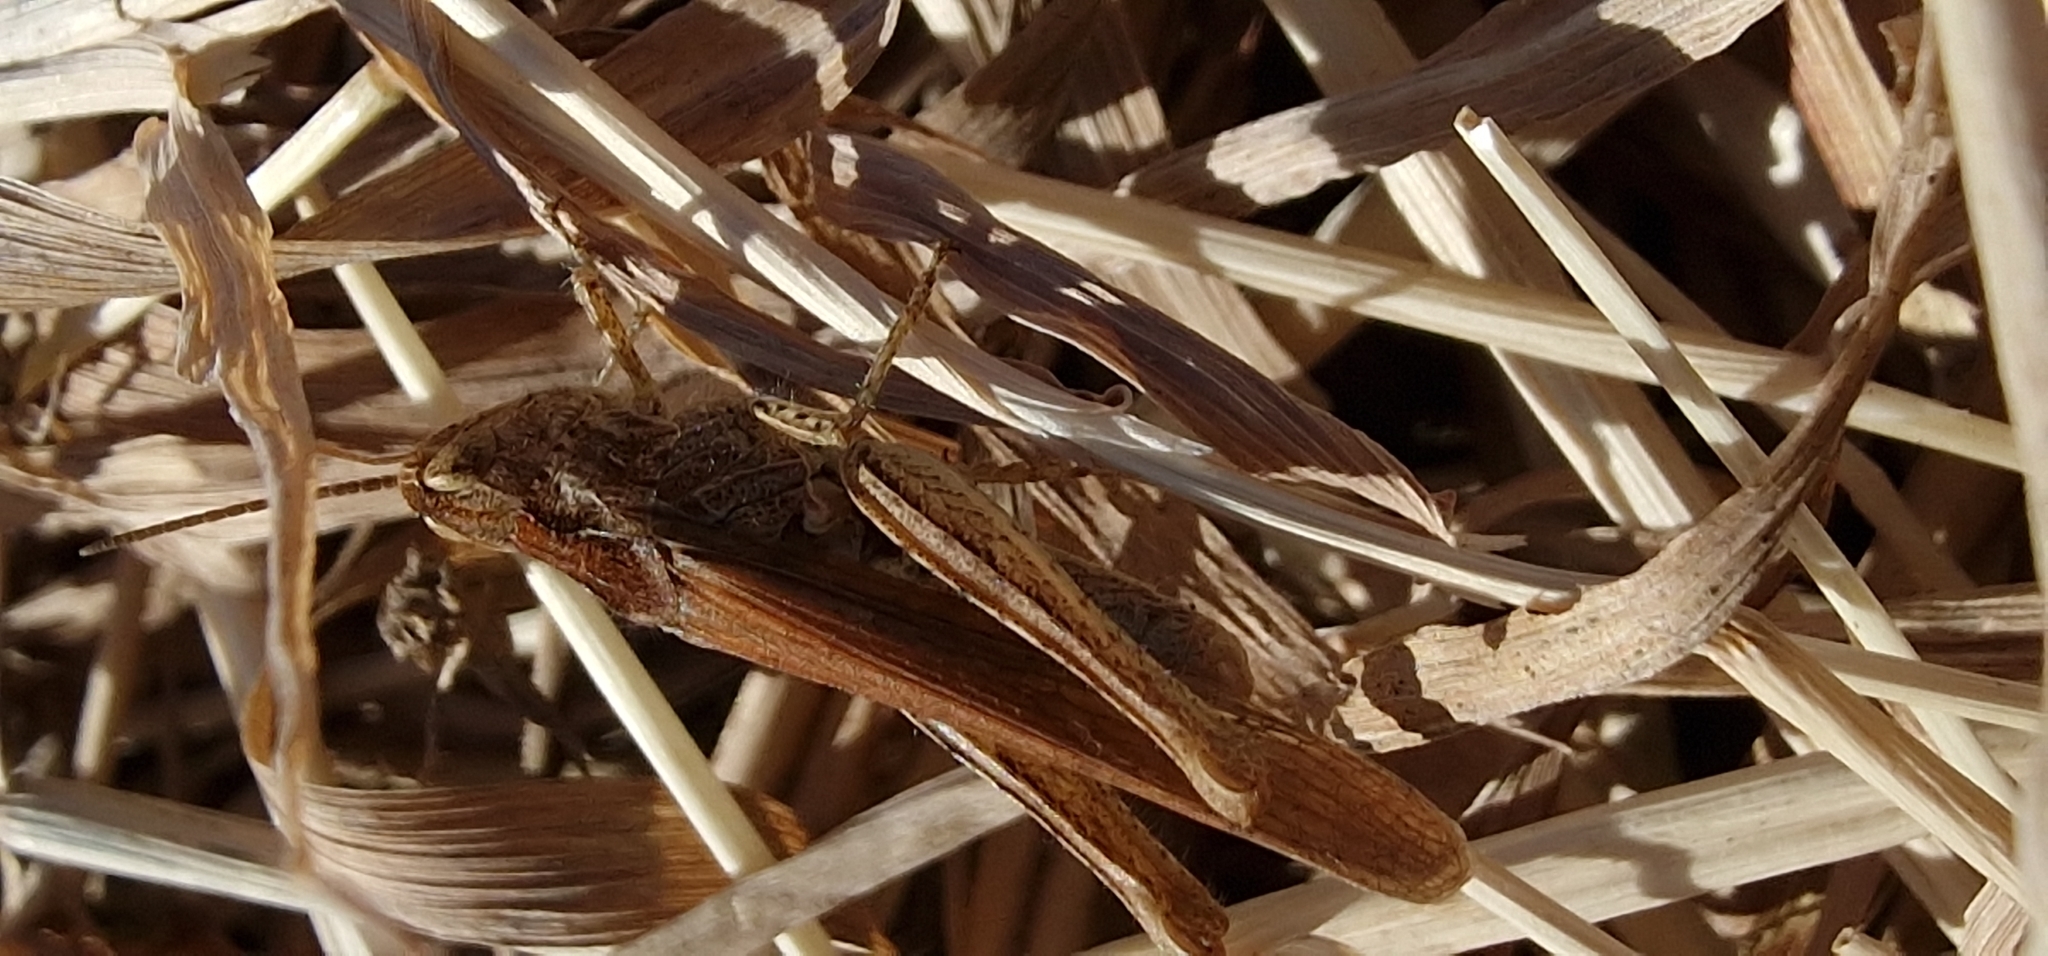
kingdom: Animalia
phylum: Arthropoda
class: Insecta
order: Orthoptera
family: Acrididae
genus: Chorthippus
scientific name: Chorthippus brunneus
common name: Field grasshopper
